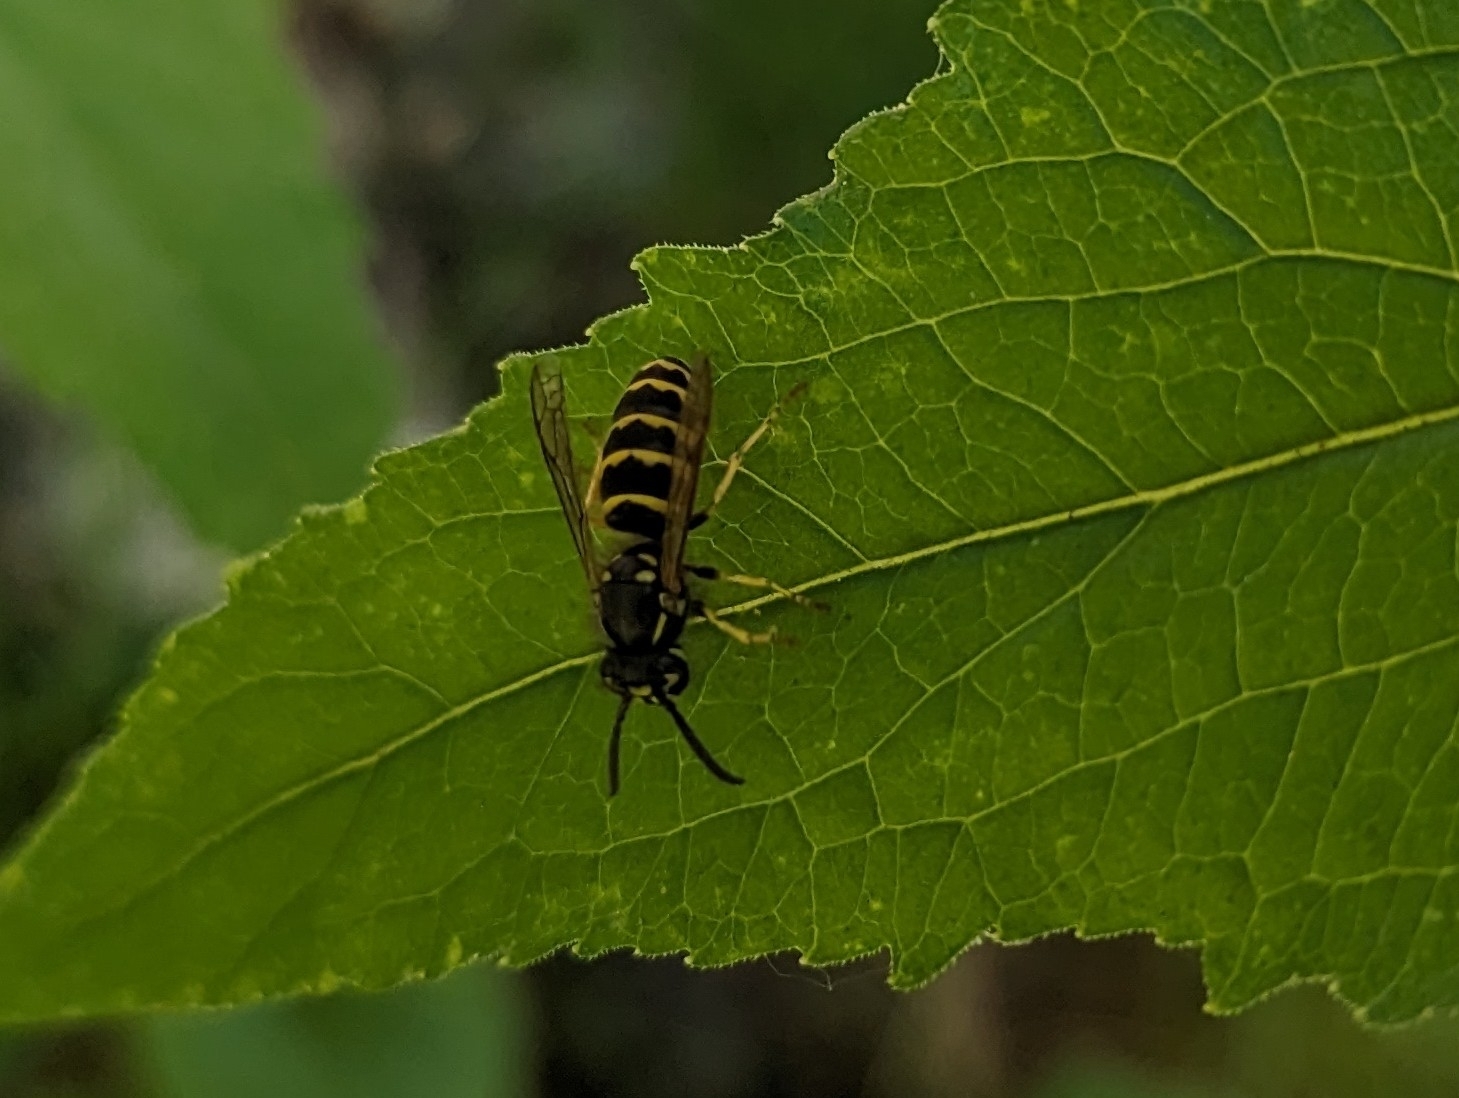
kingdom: Animalia
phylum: Arthropoda
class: Insecta
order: Hymenoptera
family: Vespidae
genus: Vespula
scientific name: Vespula alascensis
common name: Alaska yellowjacket
